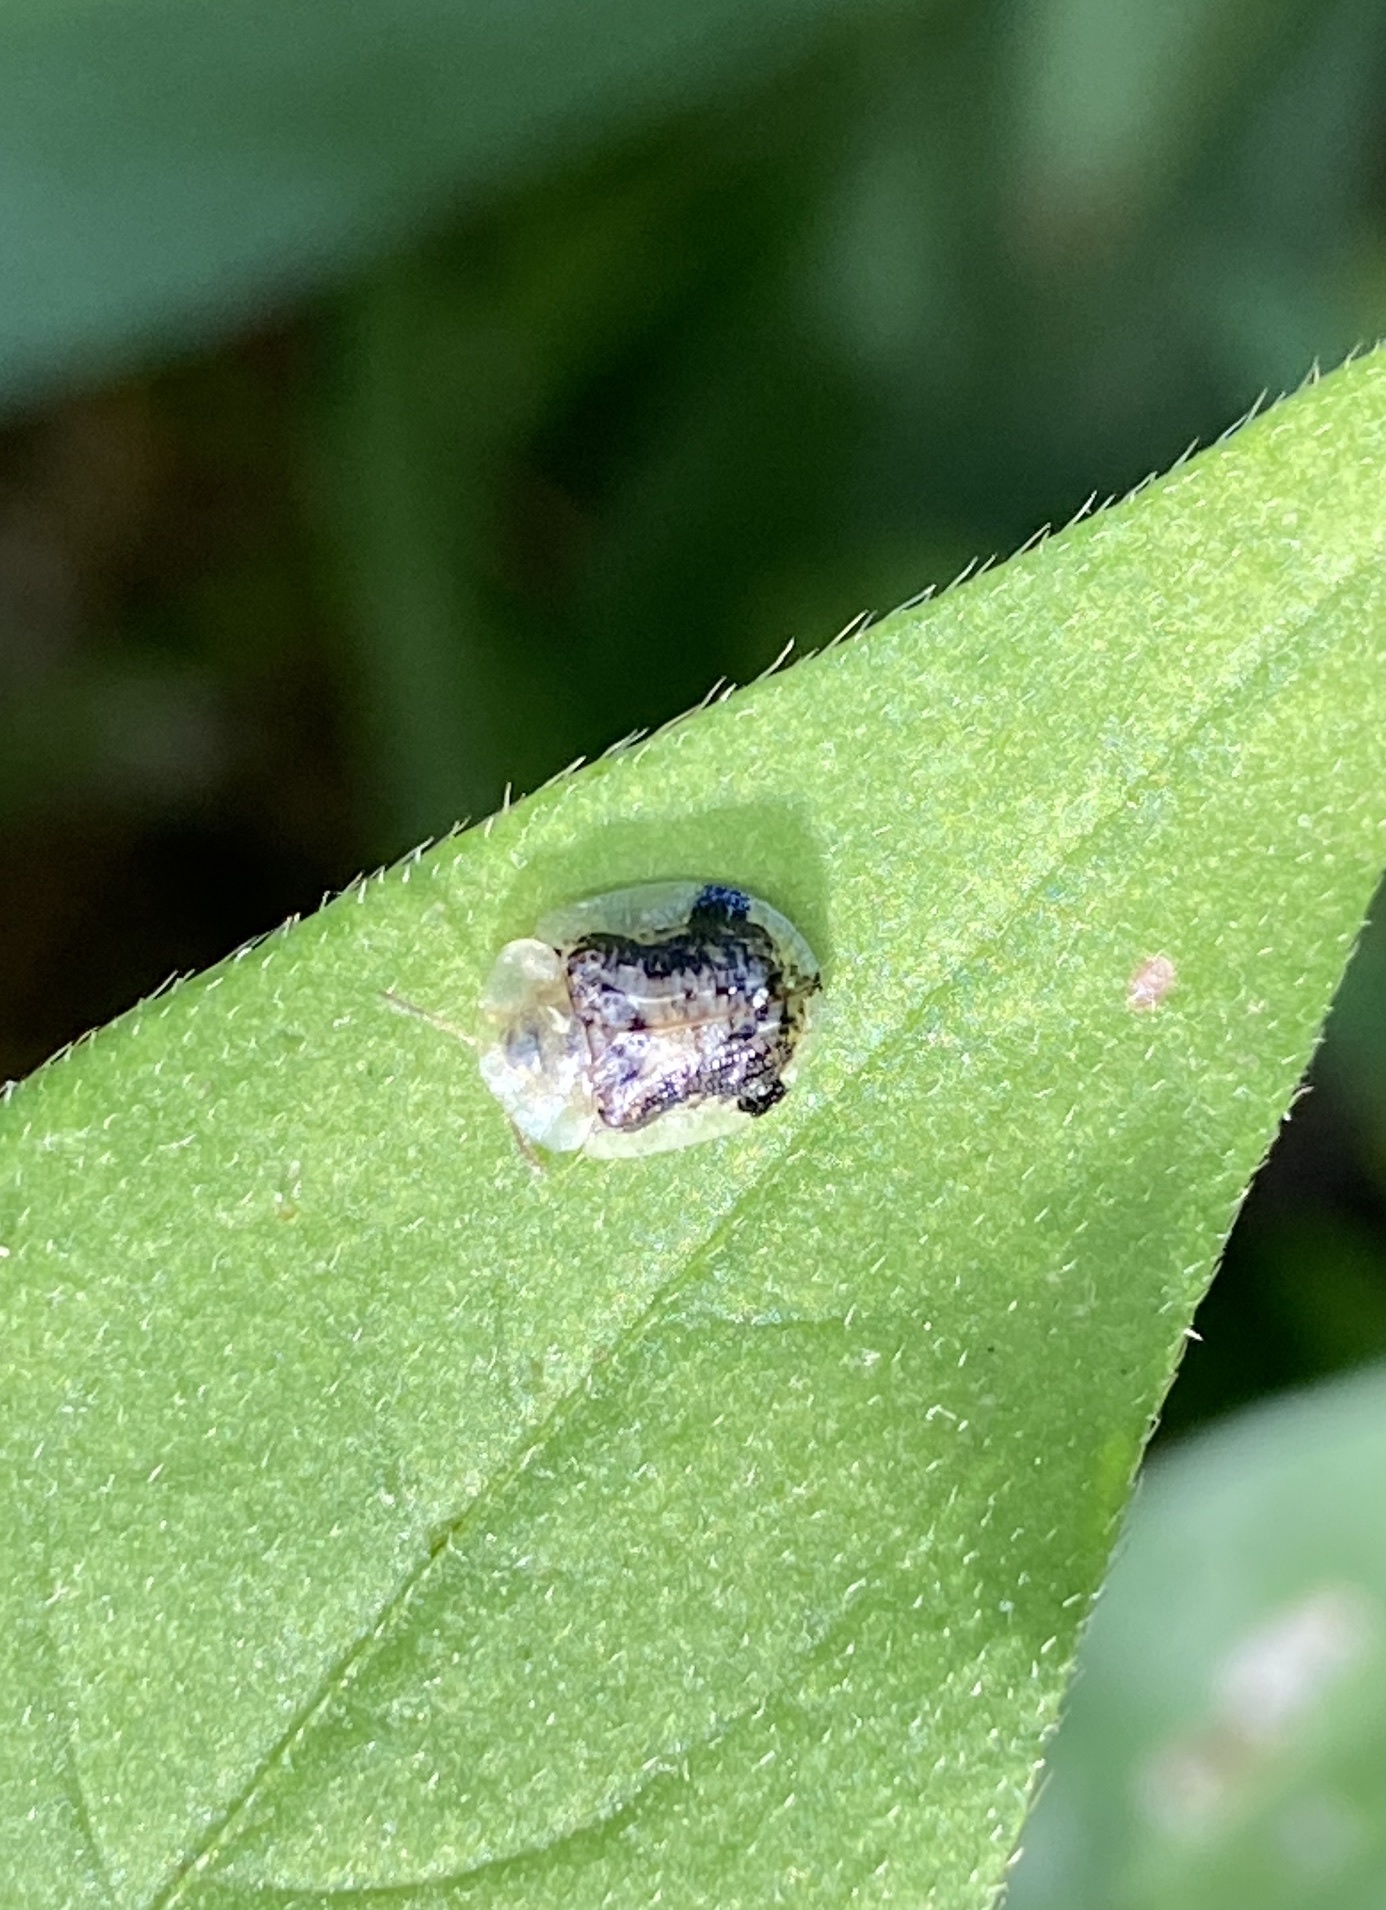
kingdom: Animalia
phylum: Arthropoda
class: Insecta
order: Coleoptera
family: Chrysomelidae
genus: Cassida
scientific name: Cassida piperata
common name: Small tortoise beetle
